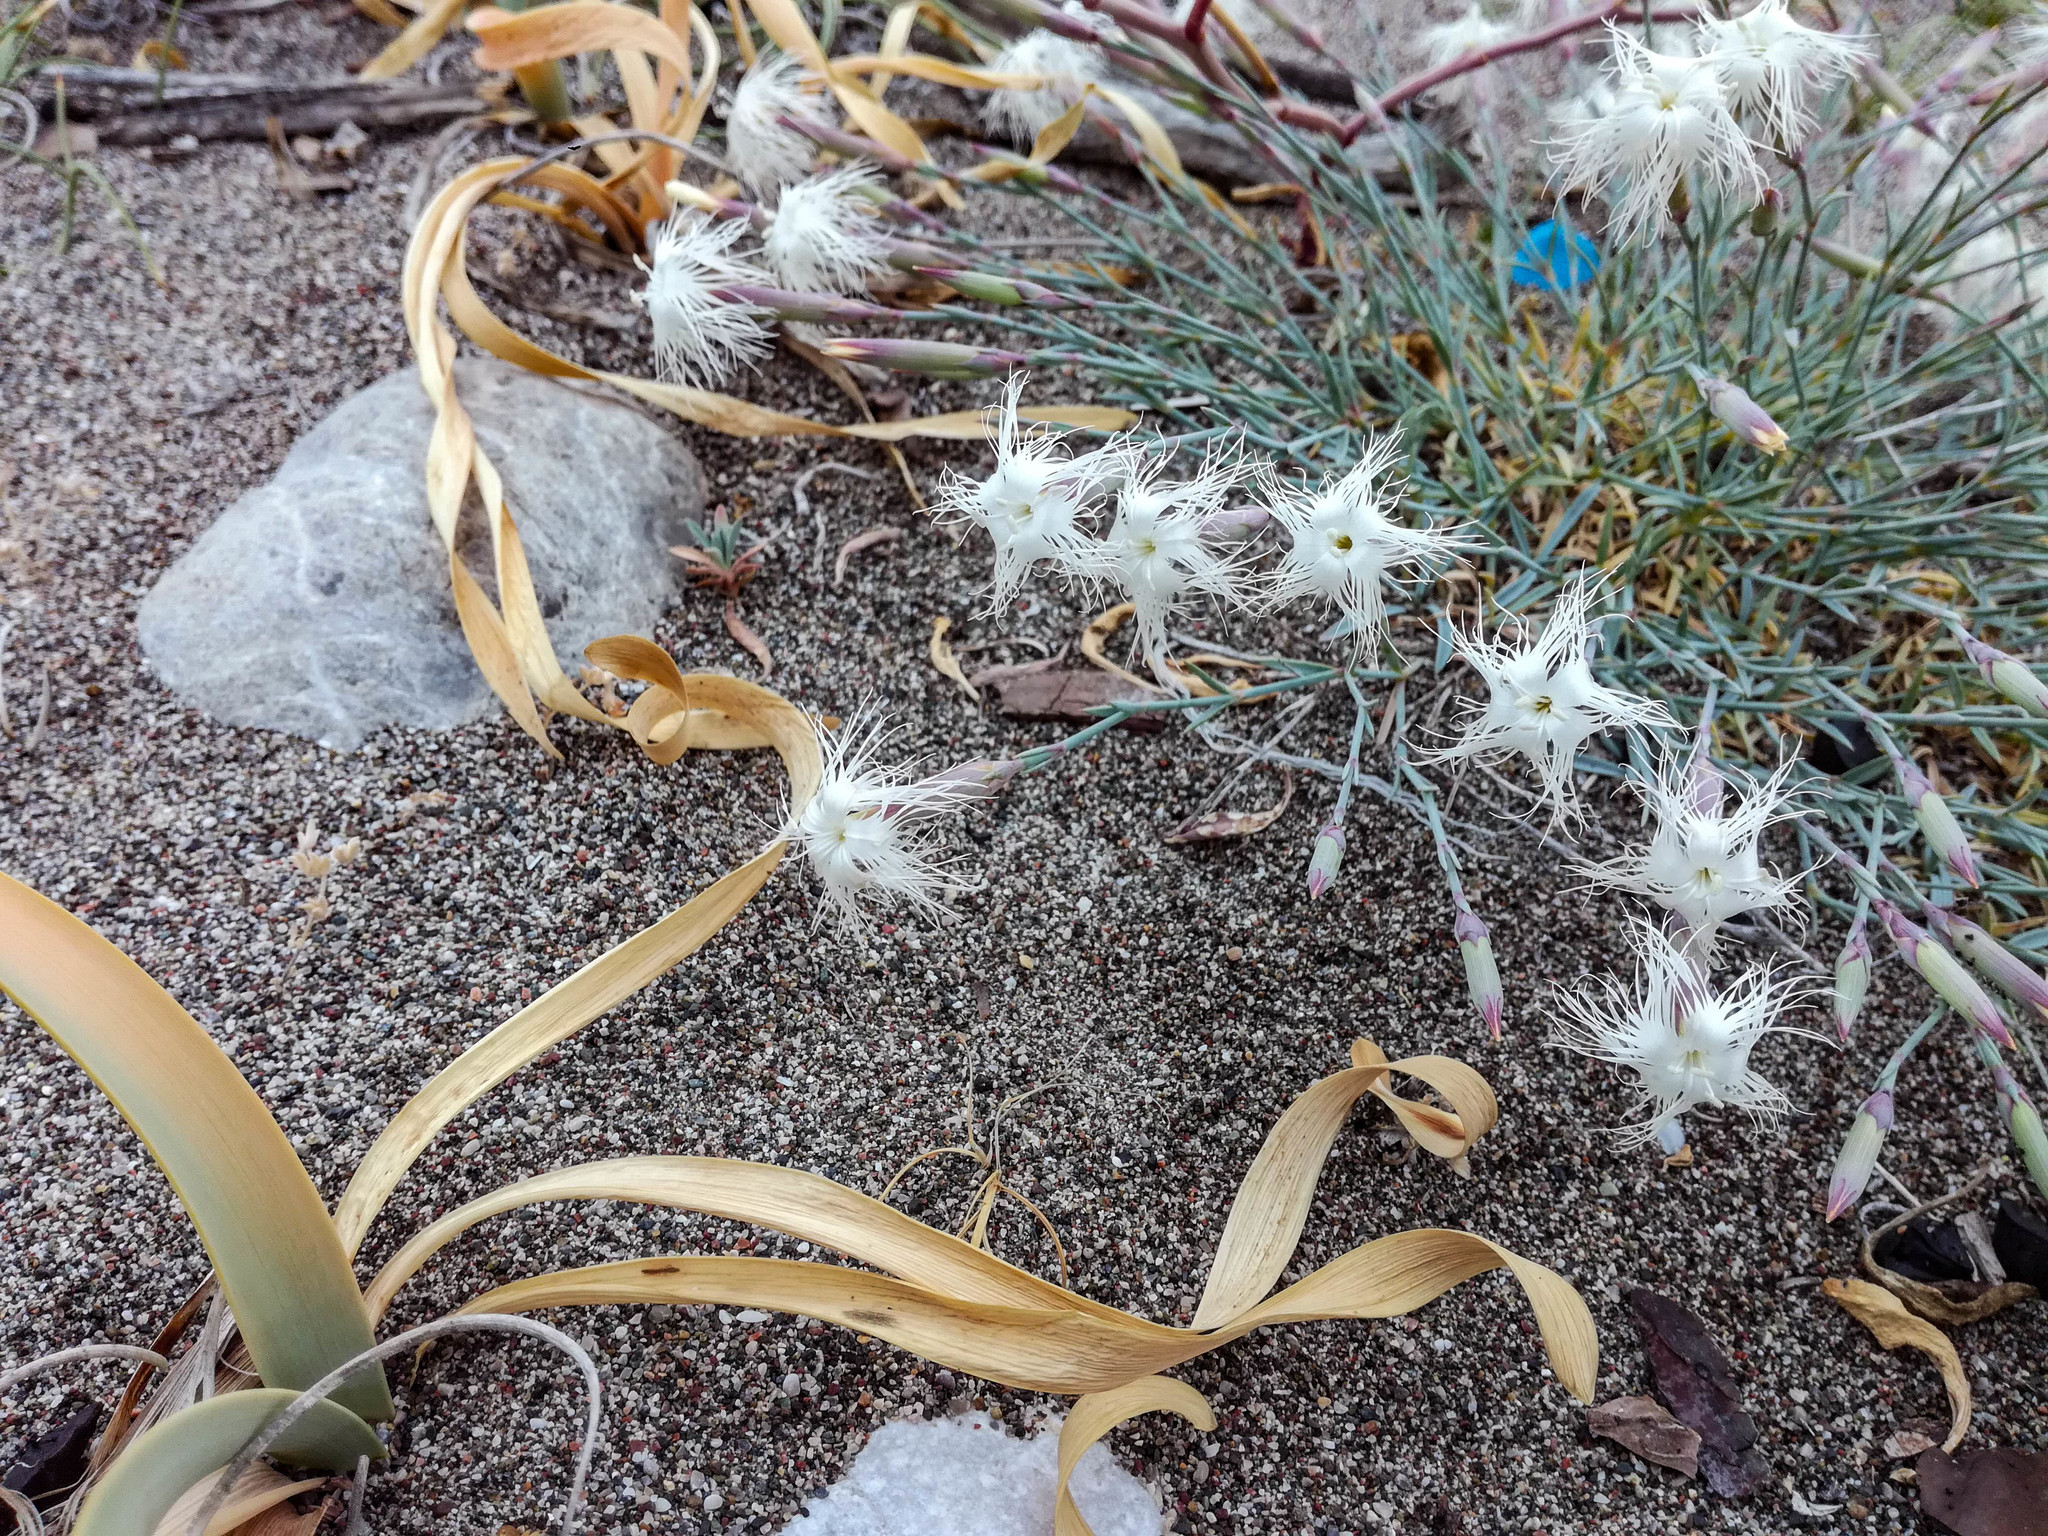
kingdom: Plantae
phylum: Tracheophyta
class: Magnoliopsida
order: Caryophyllales
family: Caryophyllaceae
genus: Dianthus
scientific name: Dianthus crinitus
